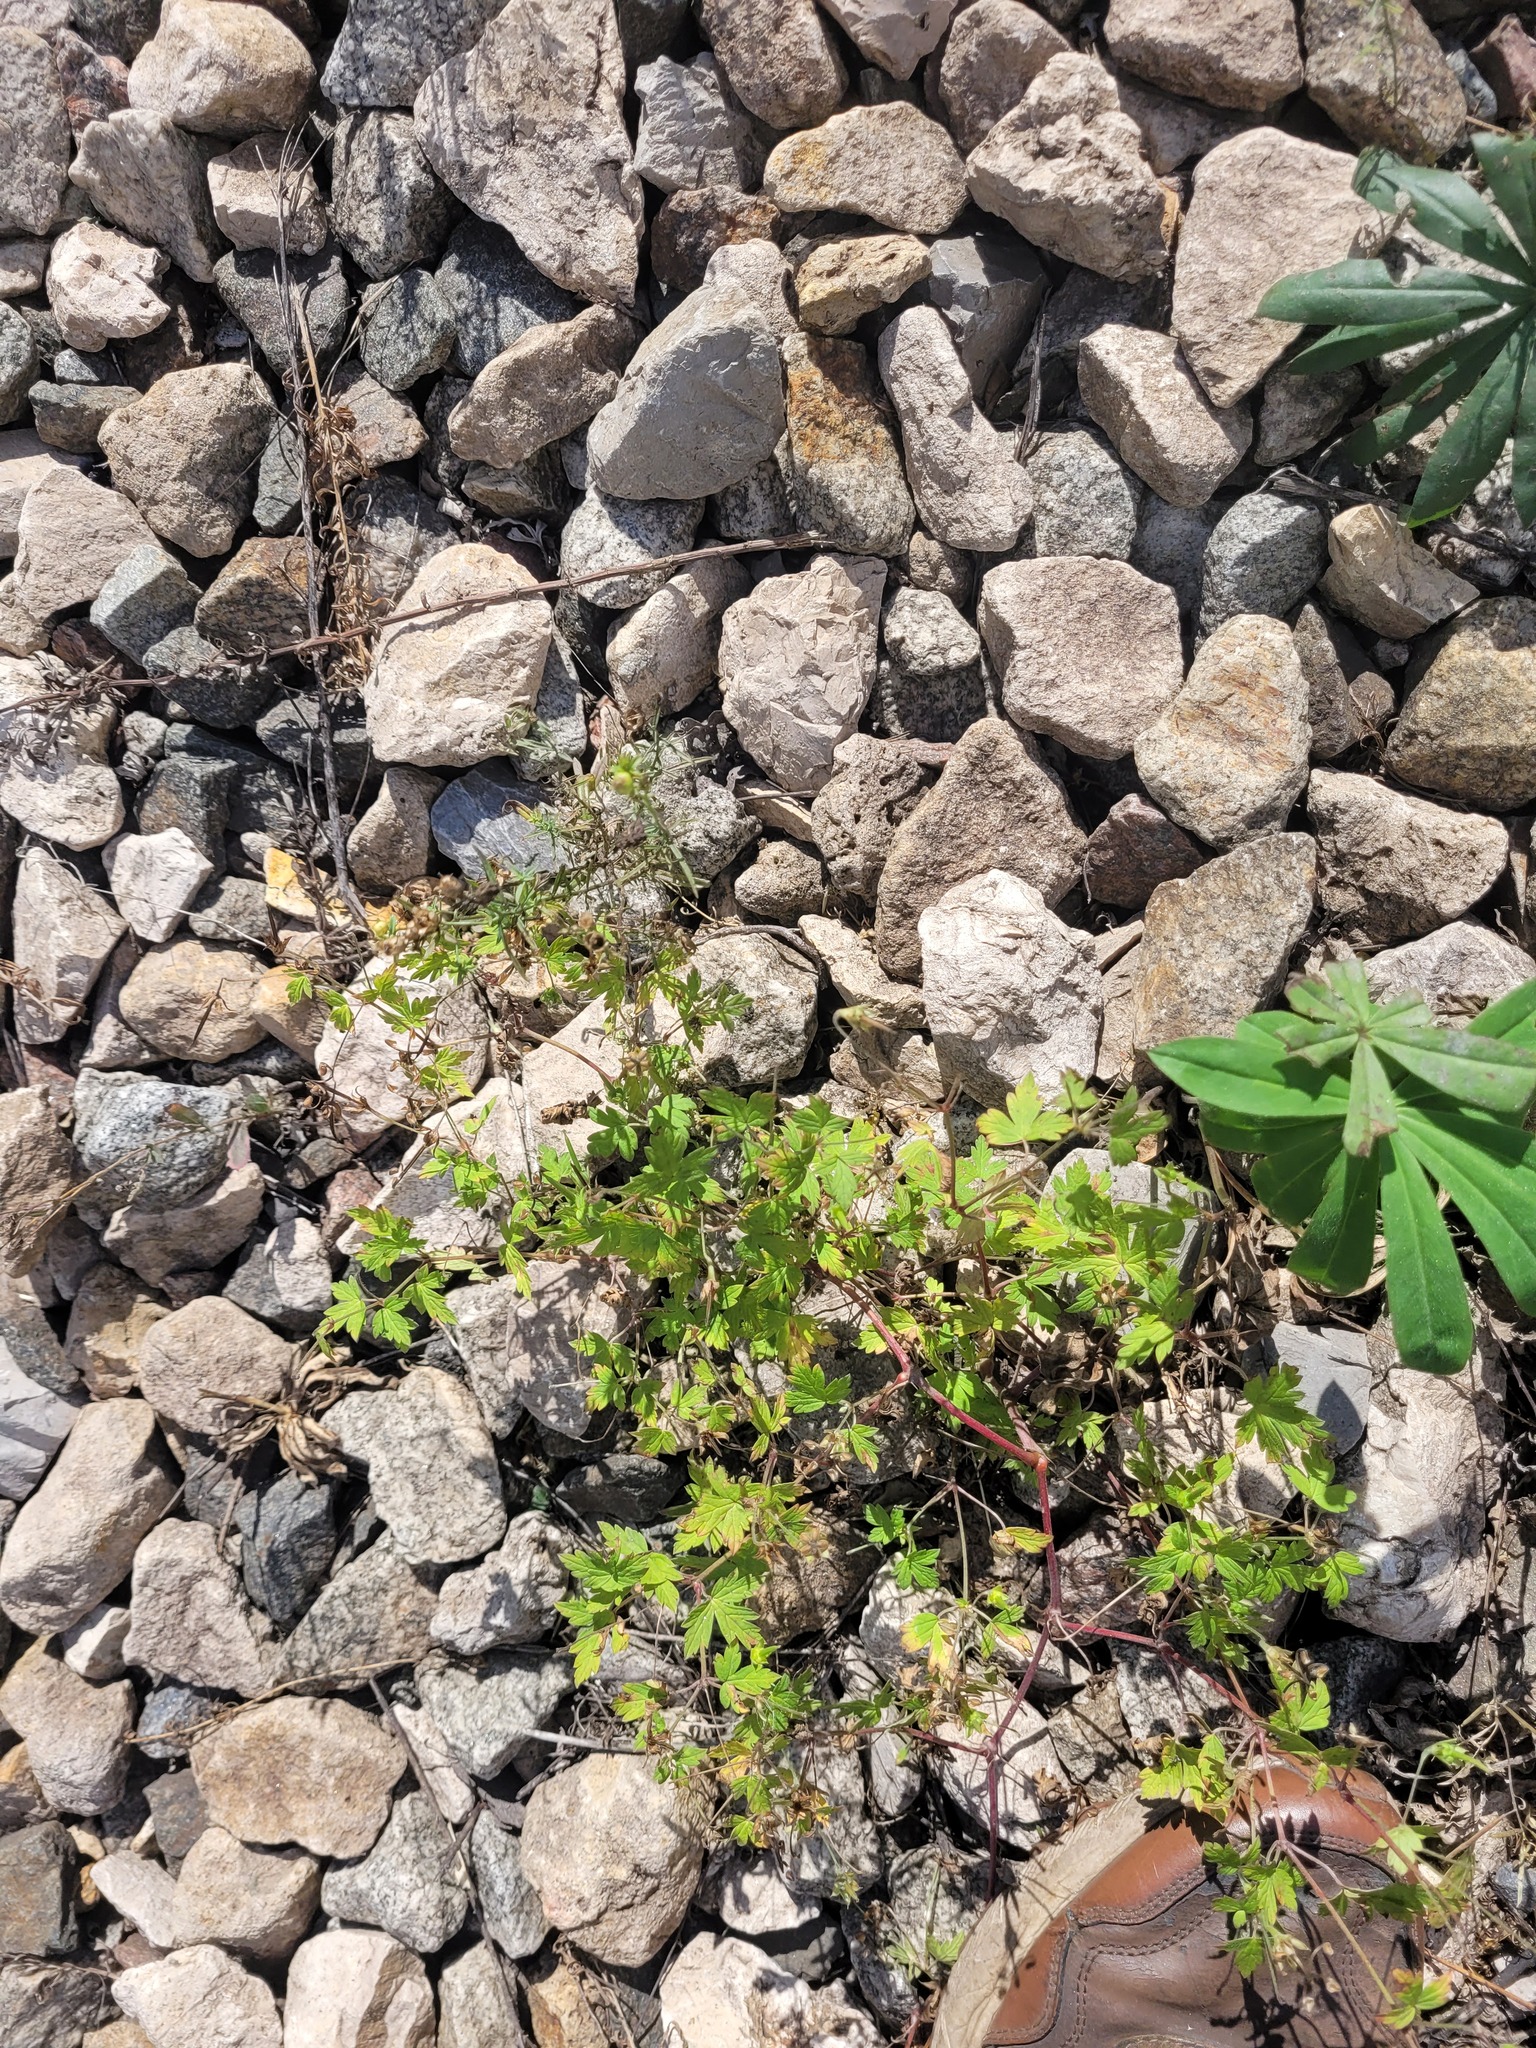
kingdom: Plantae
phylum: Tracheophyta
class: Magnoliopsida
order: Geraniales
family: Geraniaceae
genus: Geranium
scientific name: Geranium sibiricum
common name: Siberian crane's-bill
